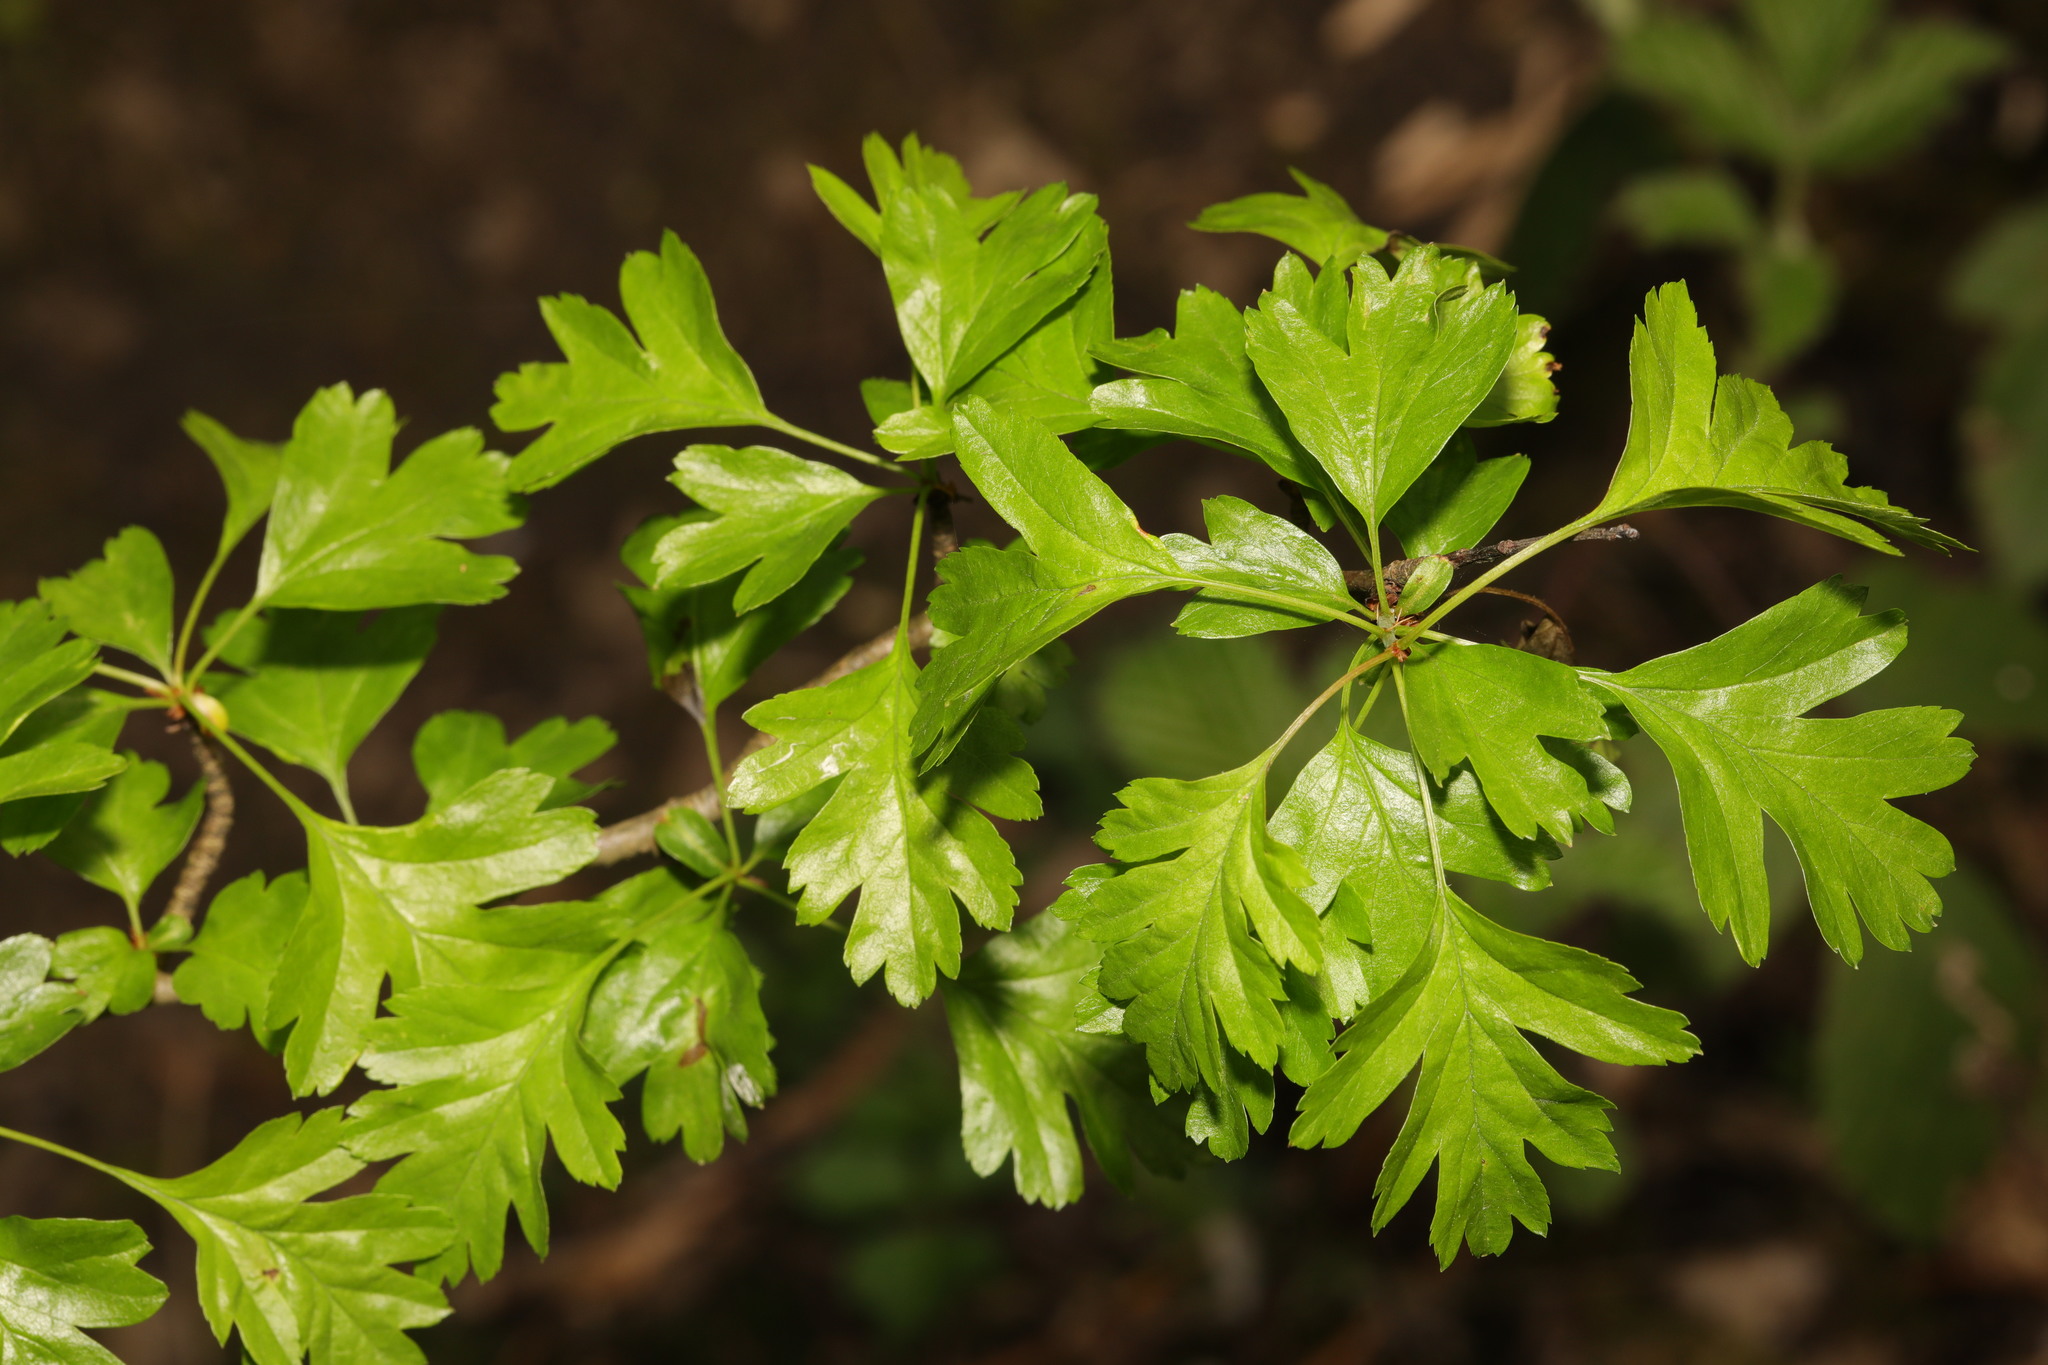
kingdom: Plantae
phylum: Tracheophyta
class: Magnoliopsida
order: Rosales
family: Rosaceae
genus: Crataegus
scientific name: Crataegus monogyna
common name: Hawthorn
